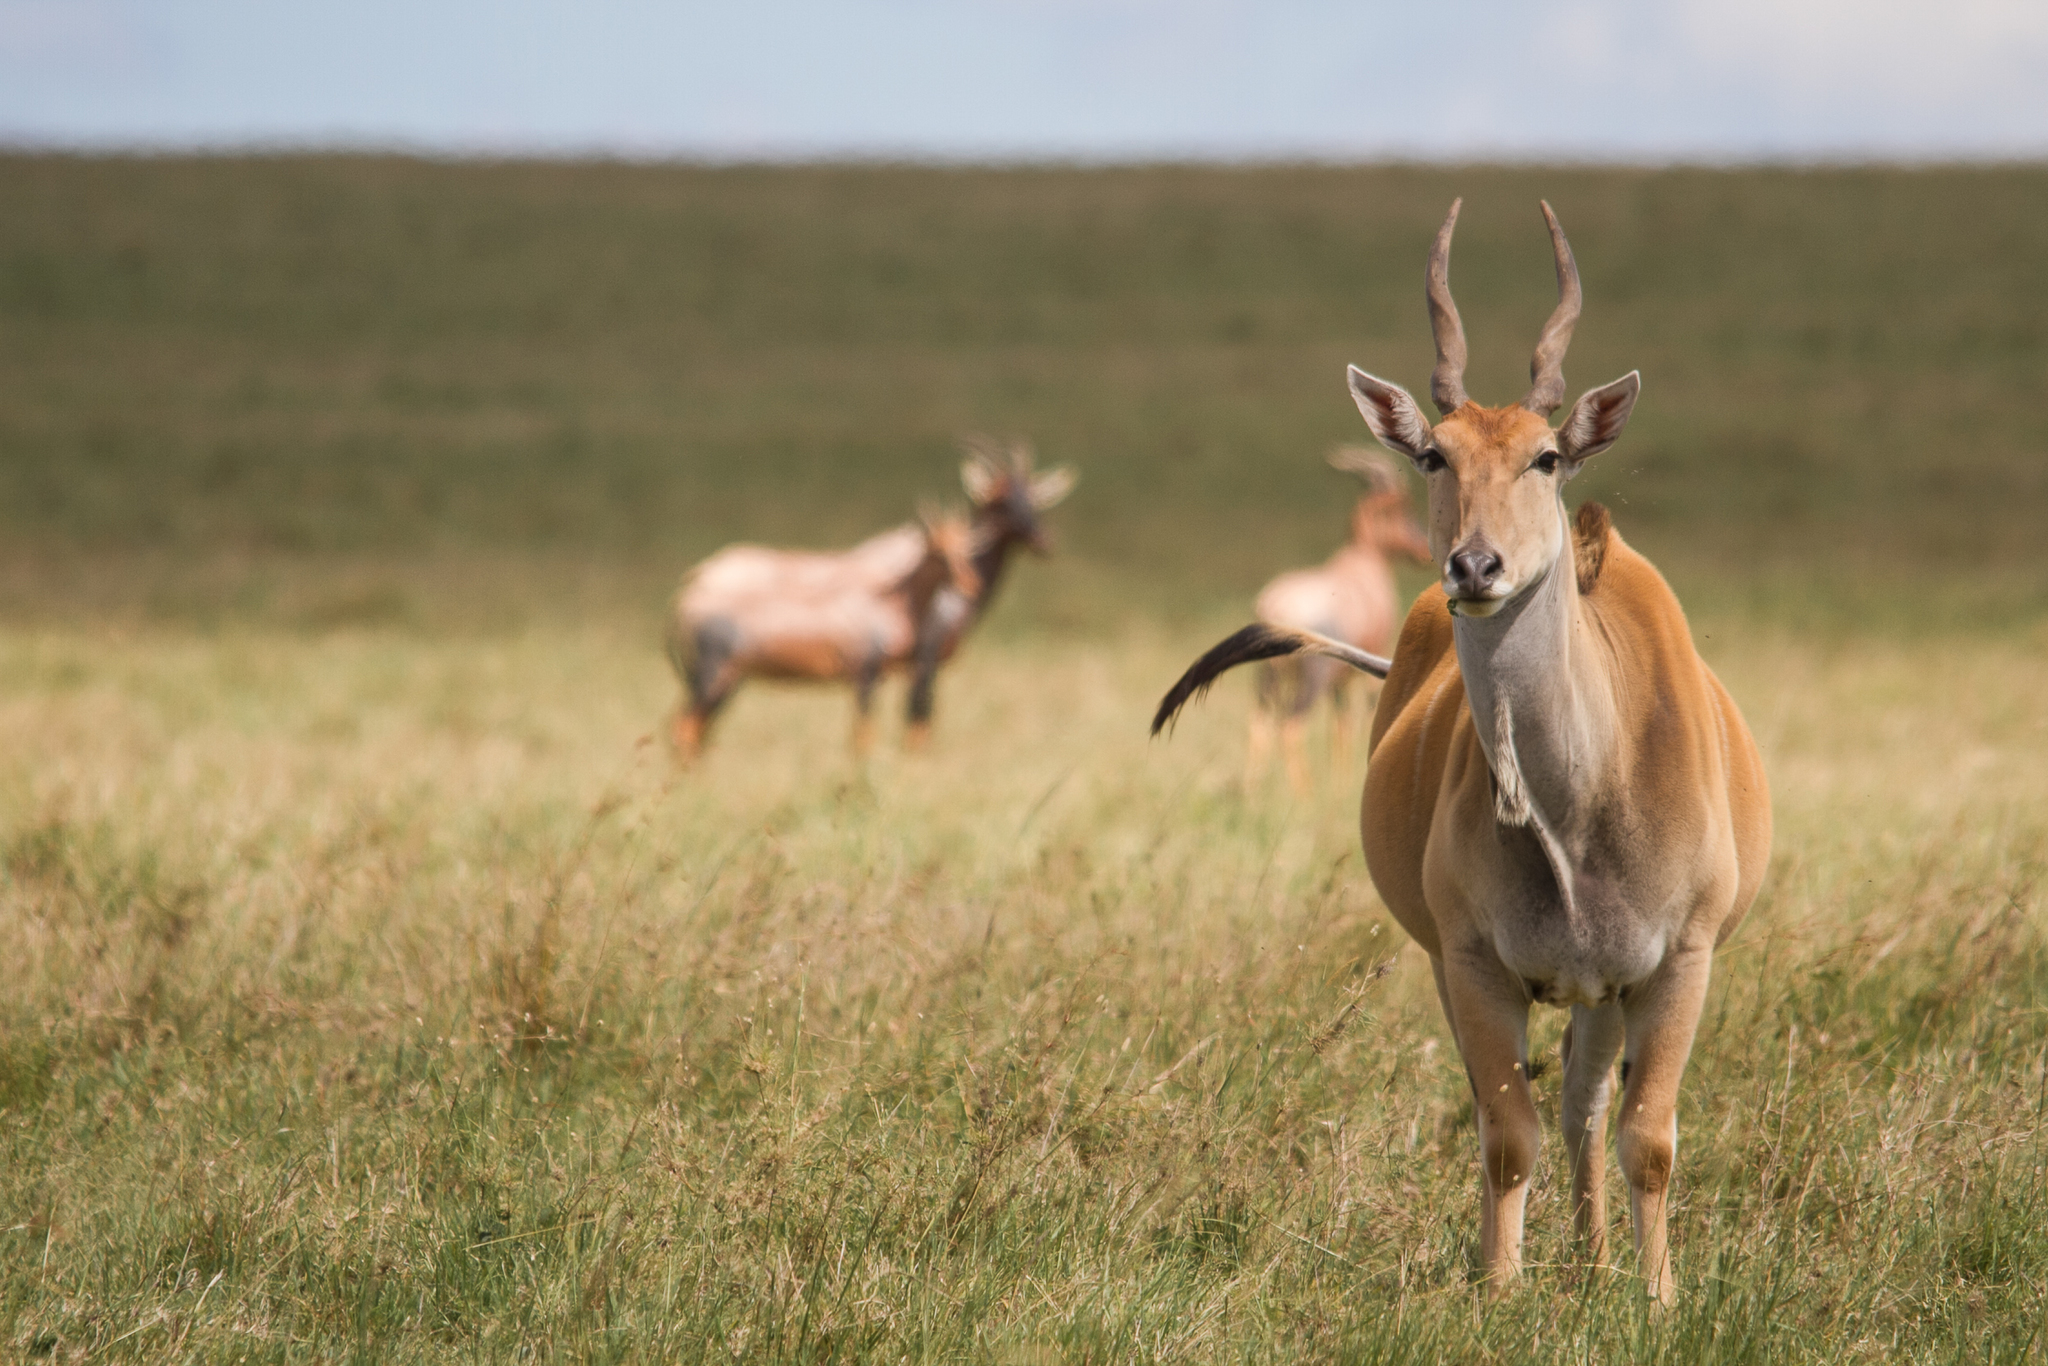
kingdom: Animalia
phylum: Chordata
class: Mammalia
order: Artiodactyla
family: Bovidae
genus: Taurotragus
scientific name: Taurotragus oryx
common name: Common eland
